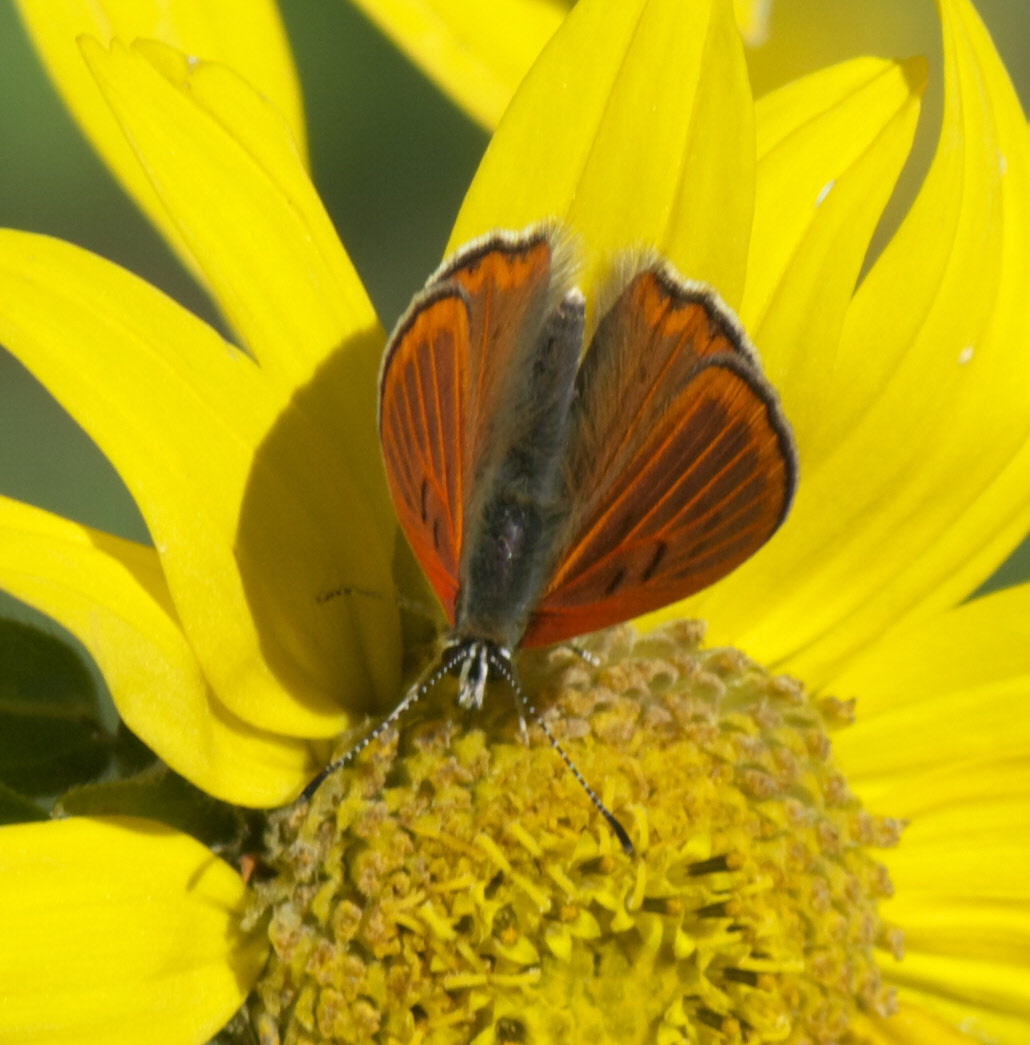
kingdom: Animalia
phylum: Arthropoda
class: Insecta
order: Lepidoptera
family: Lycaenidae
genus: Tharsalea
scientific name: Tharsalea rubidus
